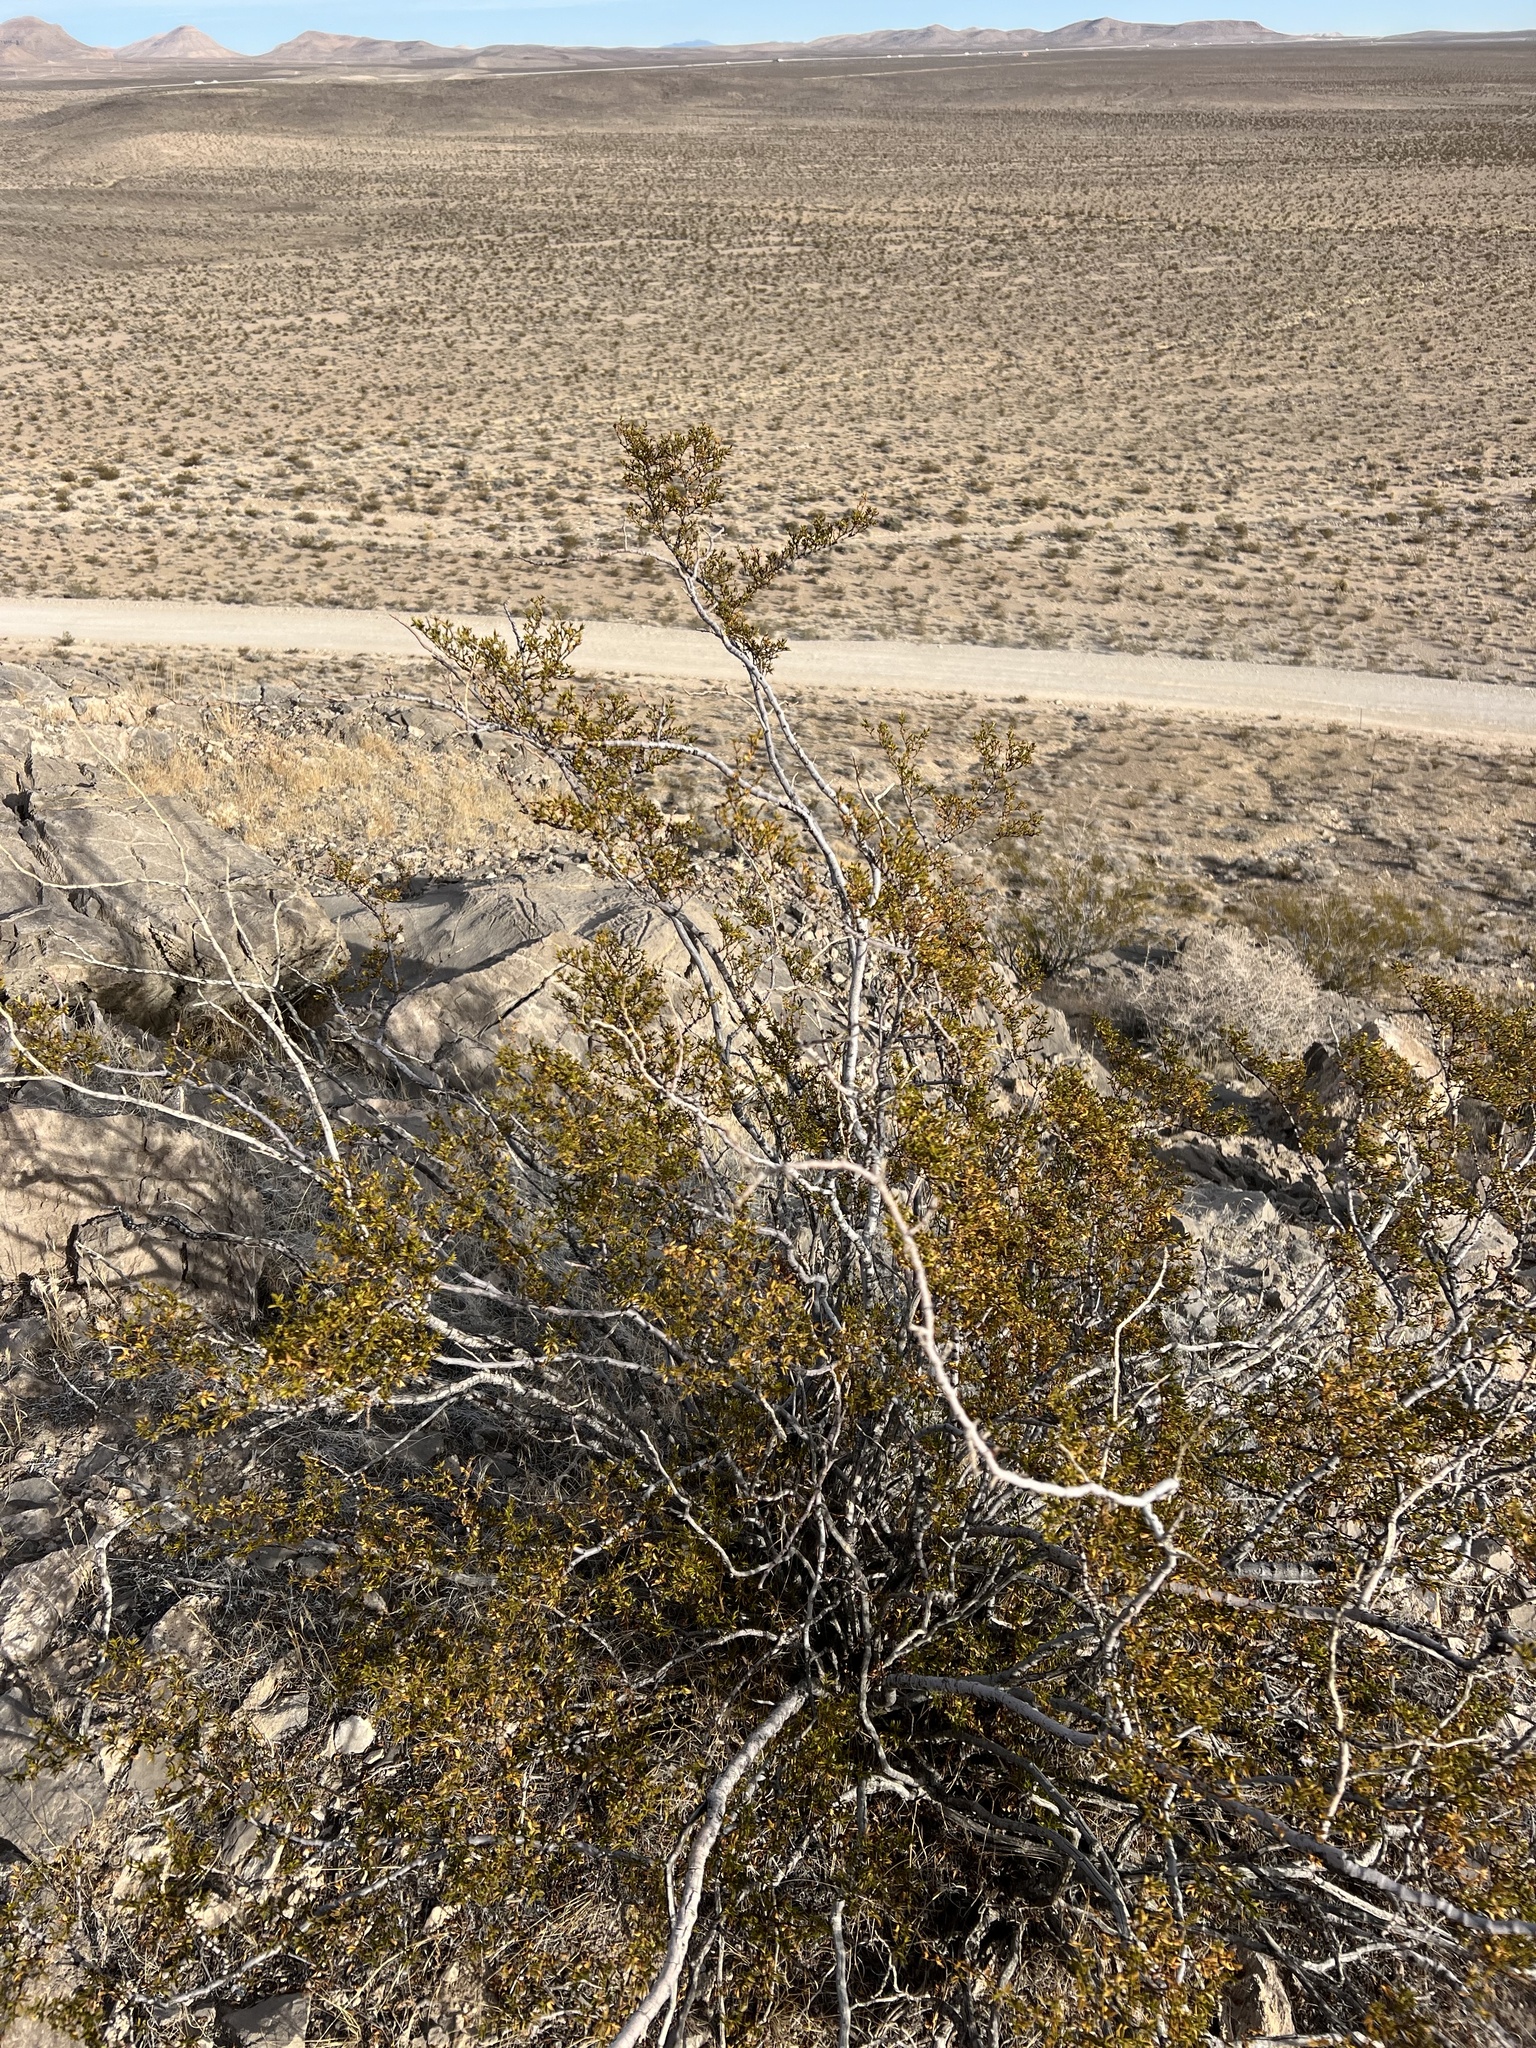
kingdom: Plantae
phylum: Tracheophyta
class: Magnoliopsida
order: Zygophyllales
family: Zygophyllaceae
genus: Larrea
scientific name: Larrea tridentata
